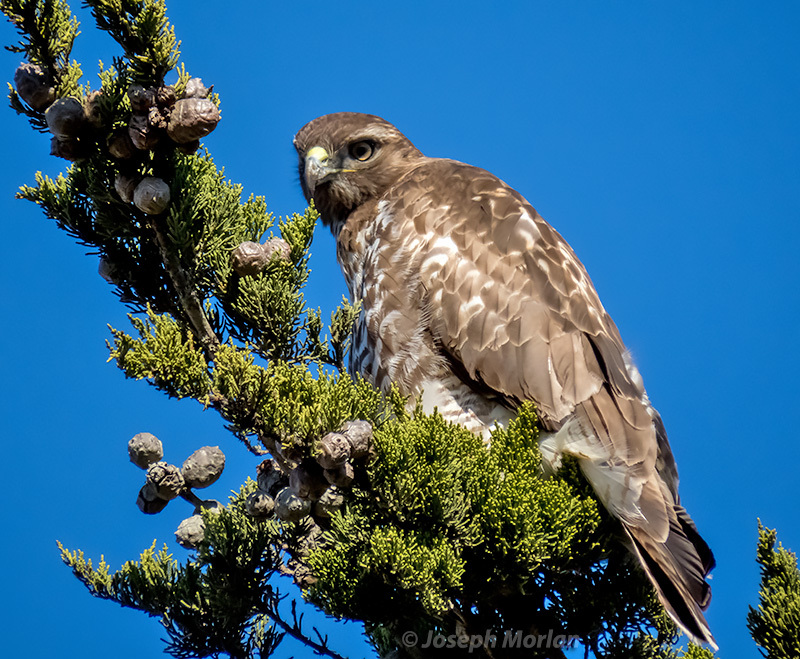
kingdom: Animalia
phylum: Chordata
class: Aves
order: Accipitriformes
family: Accipitridae
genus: Buteo
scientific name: Buteo jamaicensis
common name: Red-tailed hawk
